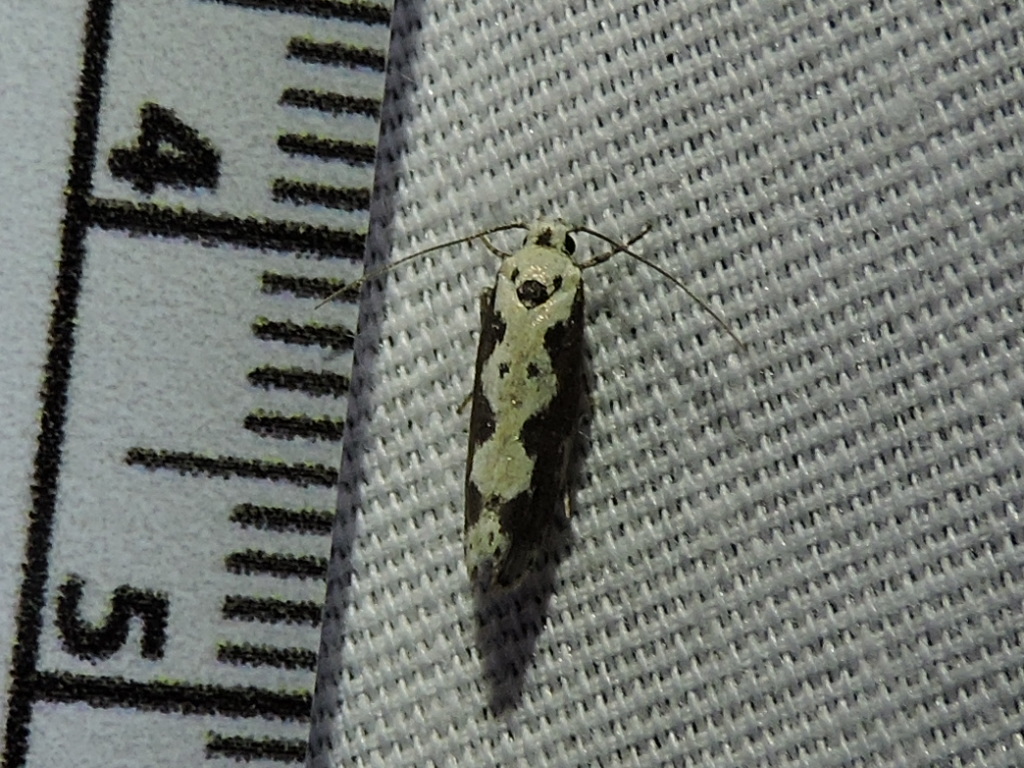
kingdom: Animalia
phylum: Arthropoda
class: Insecta
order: Lepidoptera
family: Ethmiidae
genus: Ethmia
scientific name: Ethmia hodgesella
